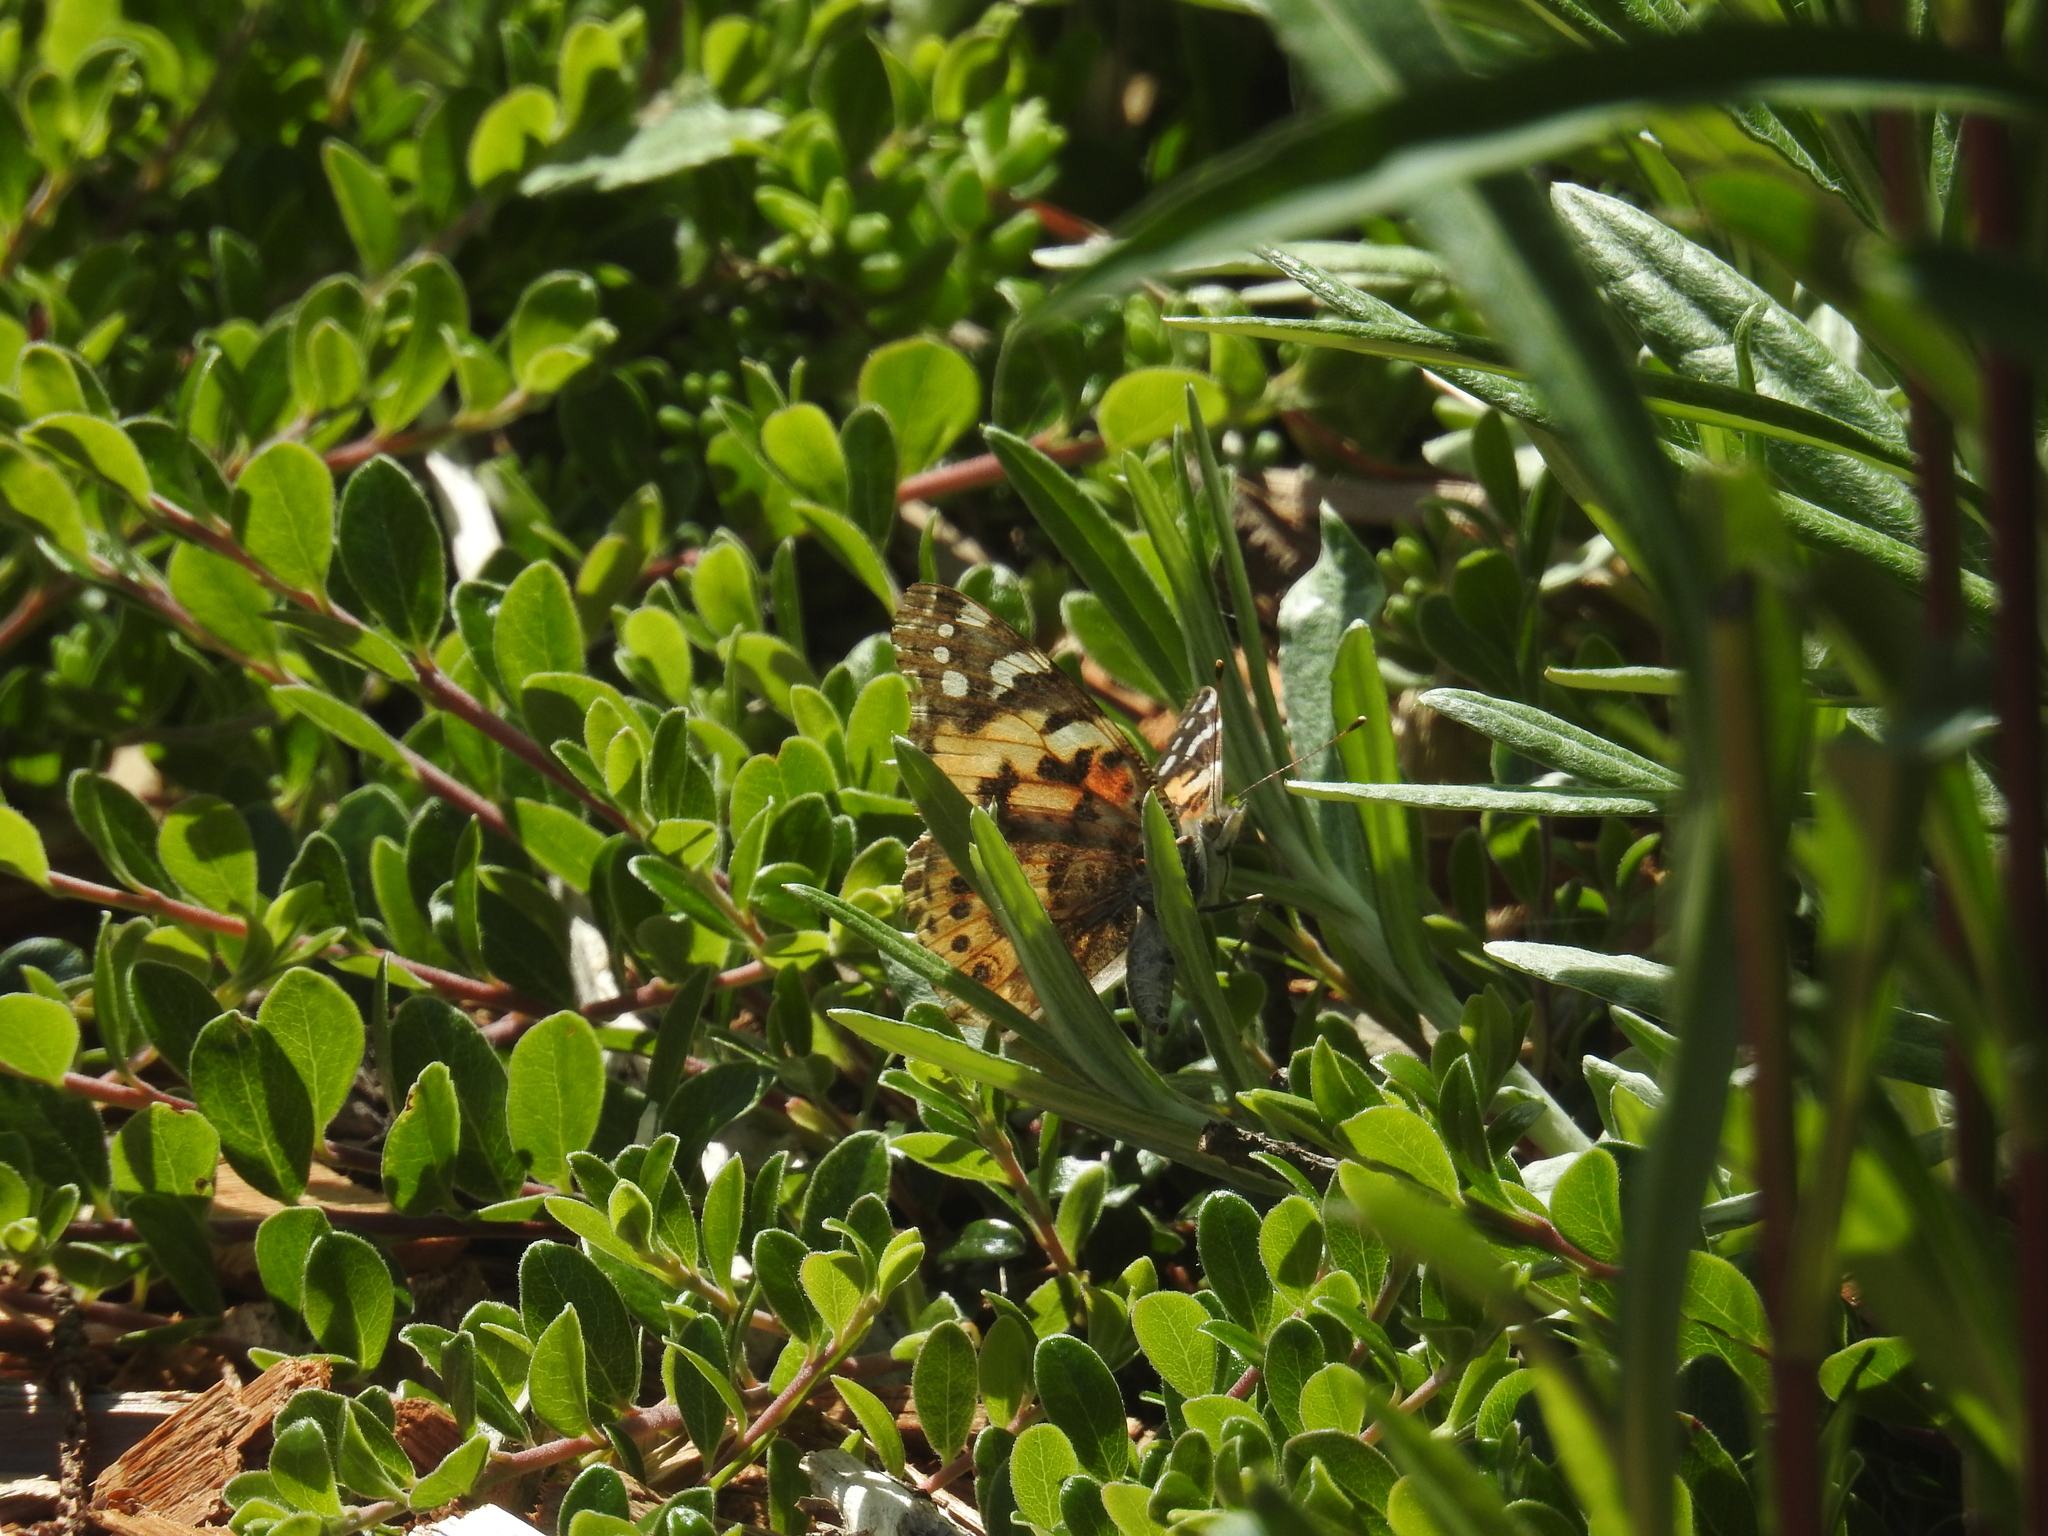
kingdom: Animalia
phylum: Arthropoda
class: Insecta
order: Lepidoptera
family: Nymphalidae
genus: Vanessa
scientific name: Vanessa cardui
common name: Painted lady
